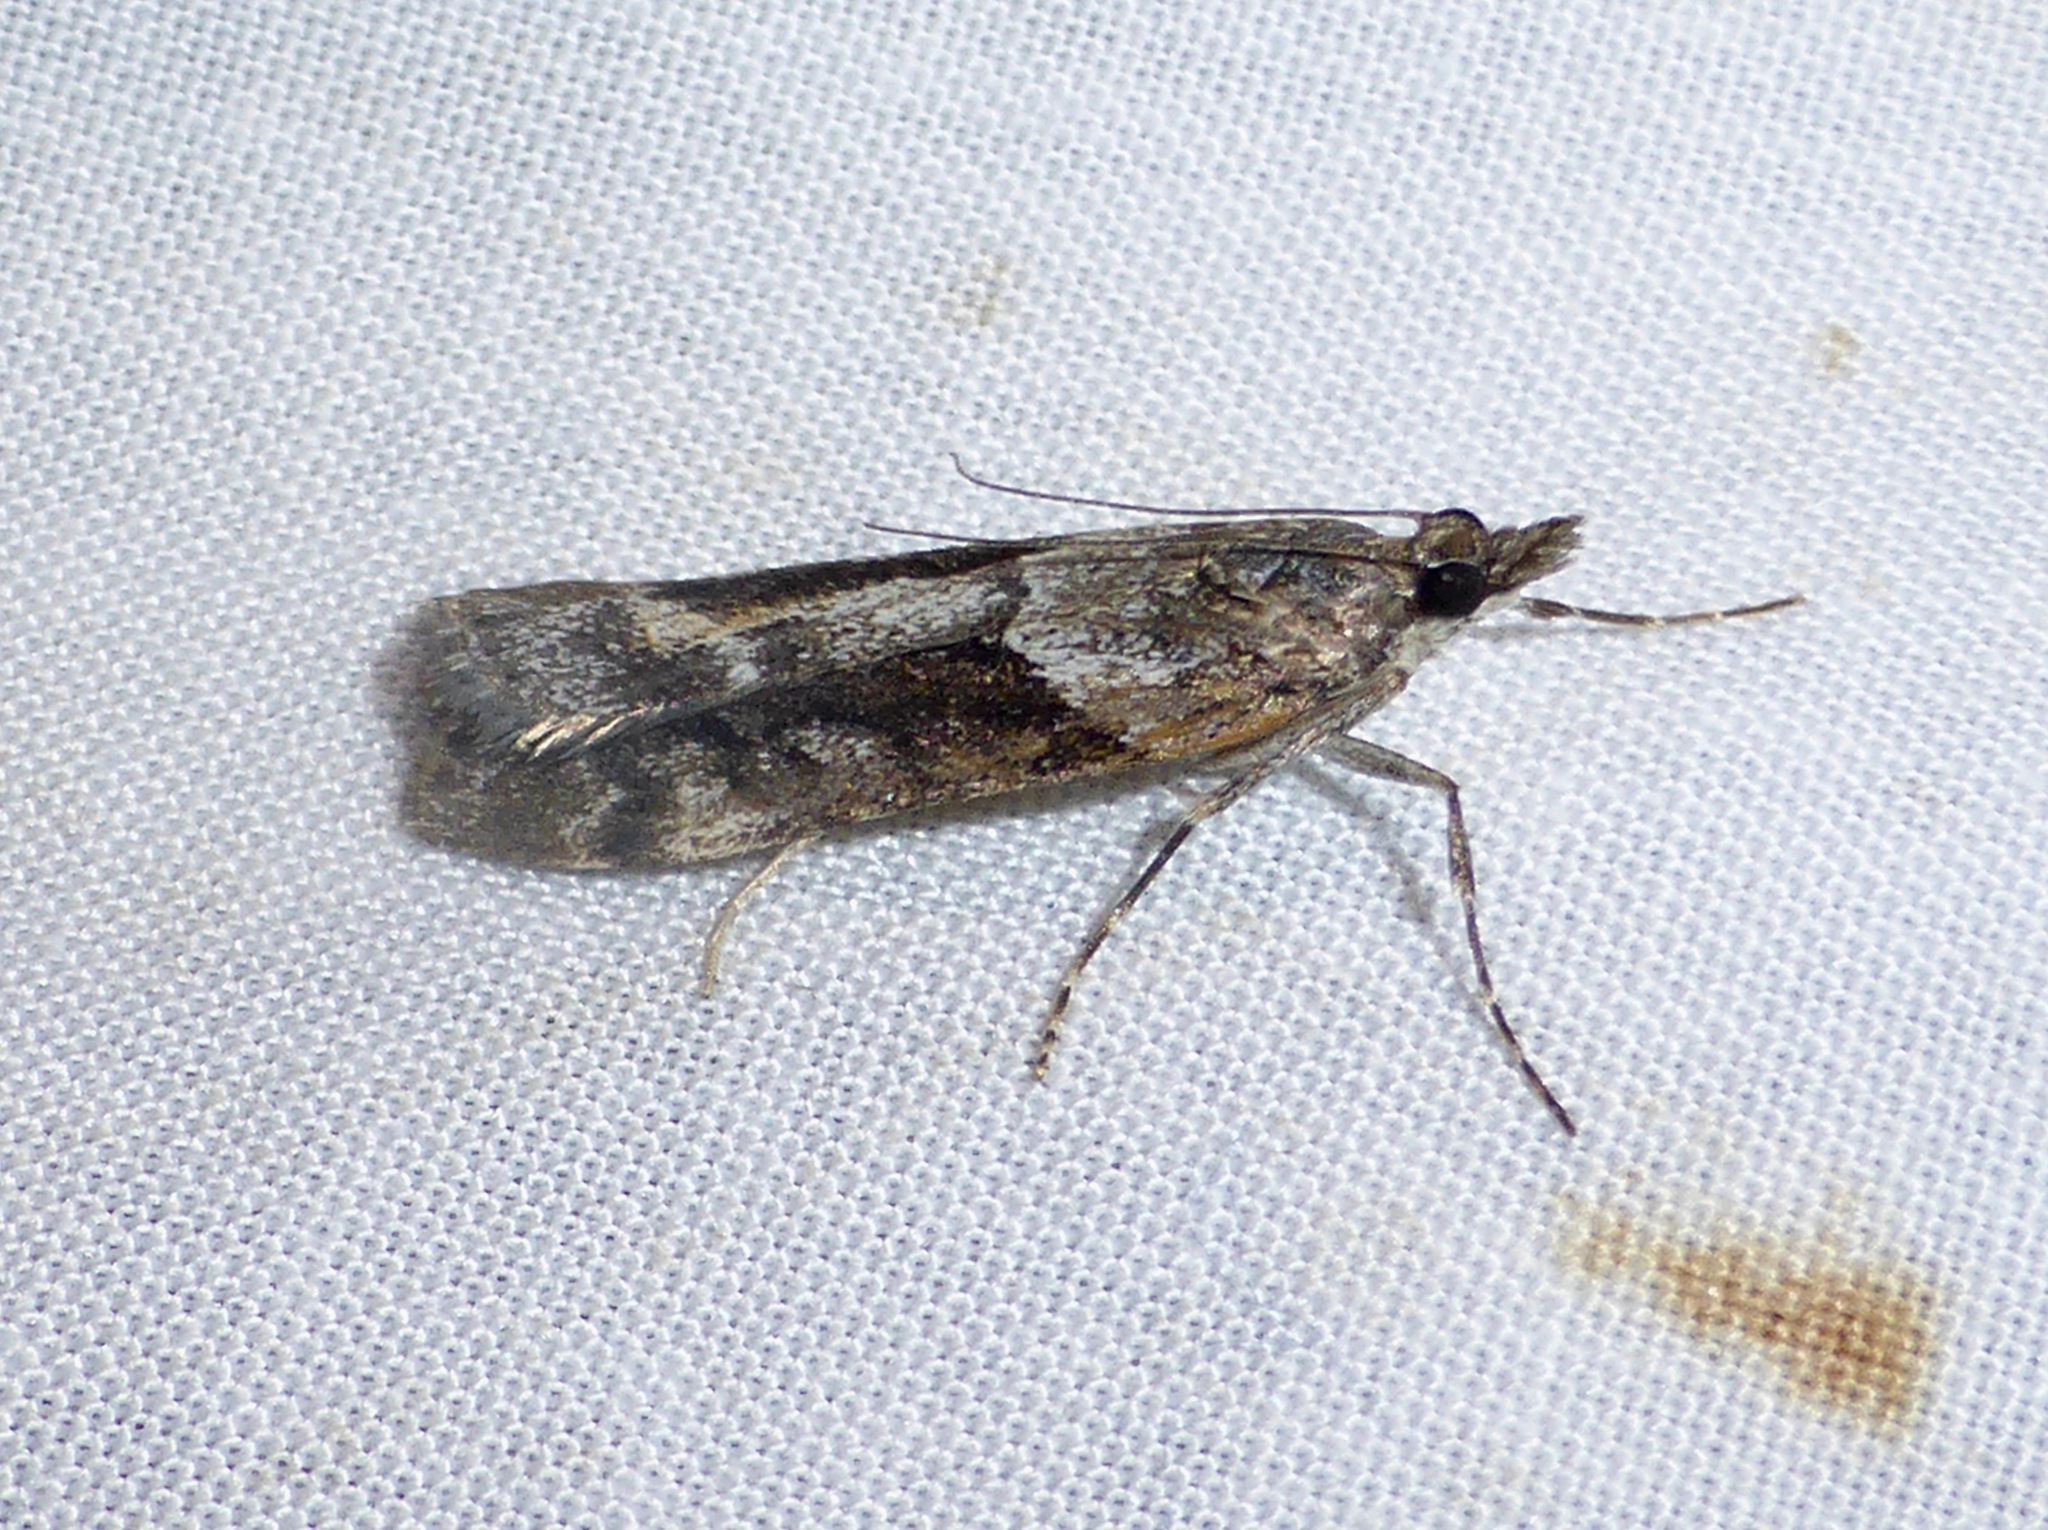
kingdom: Animalia
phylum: Arthropoda
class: Insecta
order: Lepidoptera
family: Crambidae
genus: Eudonia
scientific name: Eudonia submarginalis
